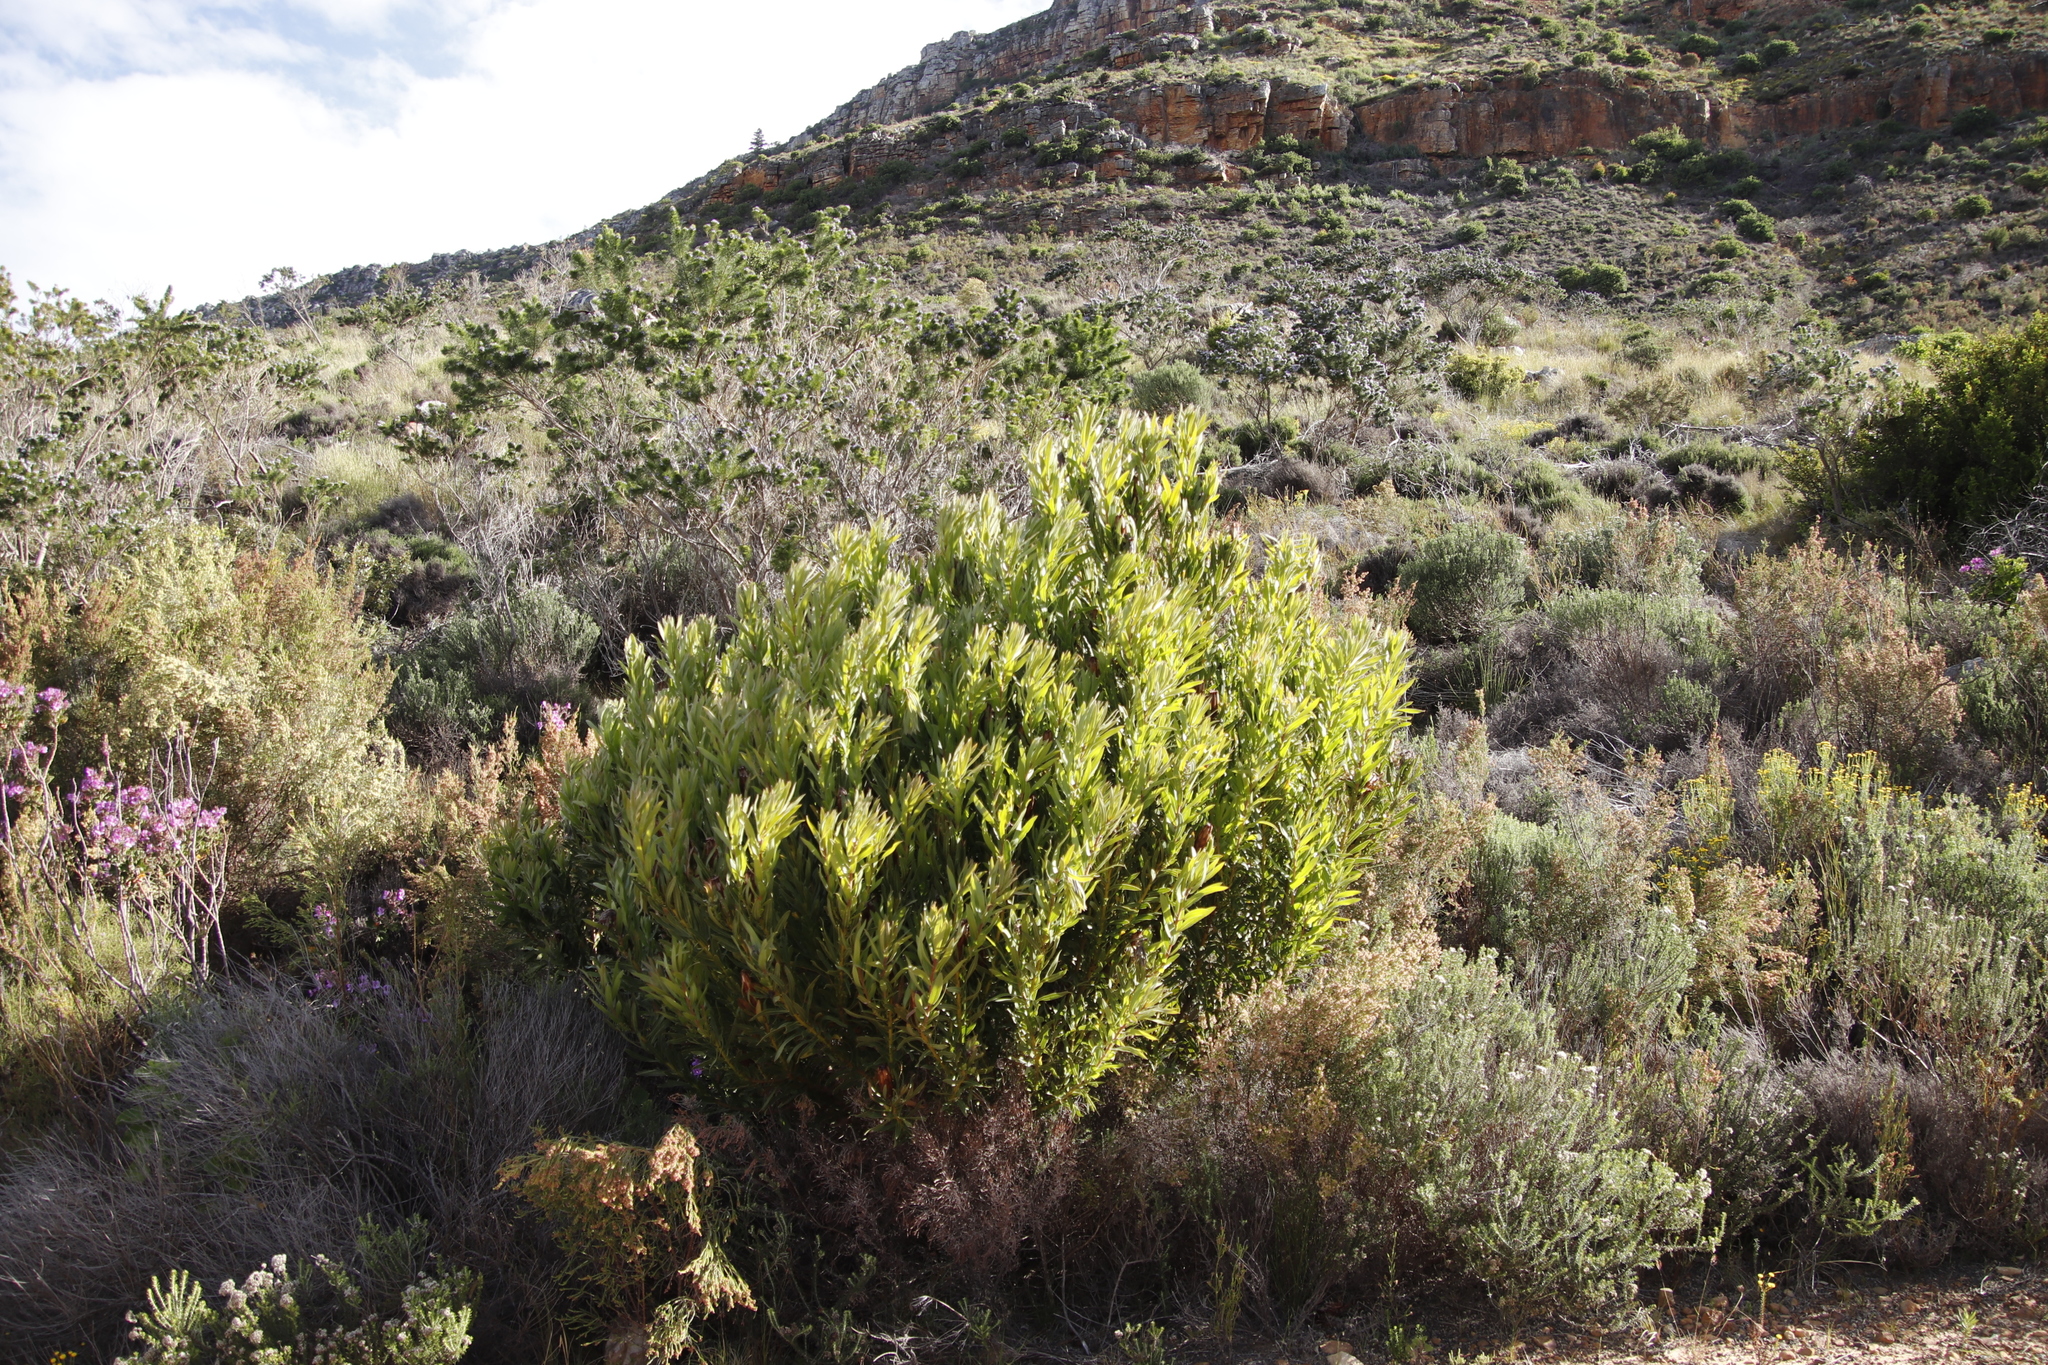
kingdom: Plantae
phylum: Tracheophyta
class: Magnoliopsida
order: Proteales
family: Proteaceae
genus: Protea
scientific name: Protea lepidocarpodendron
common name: Black-bearded protea
